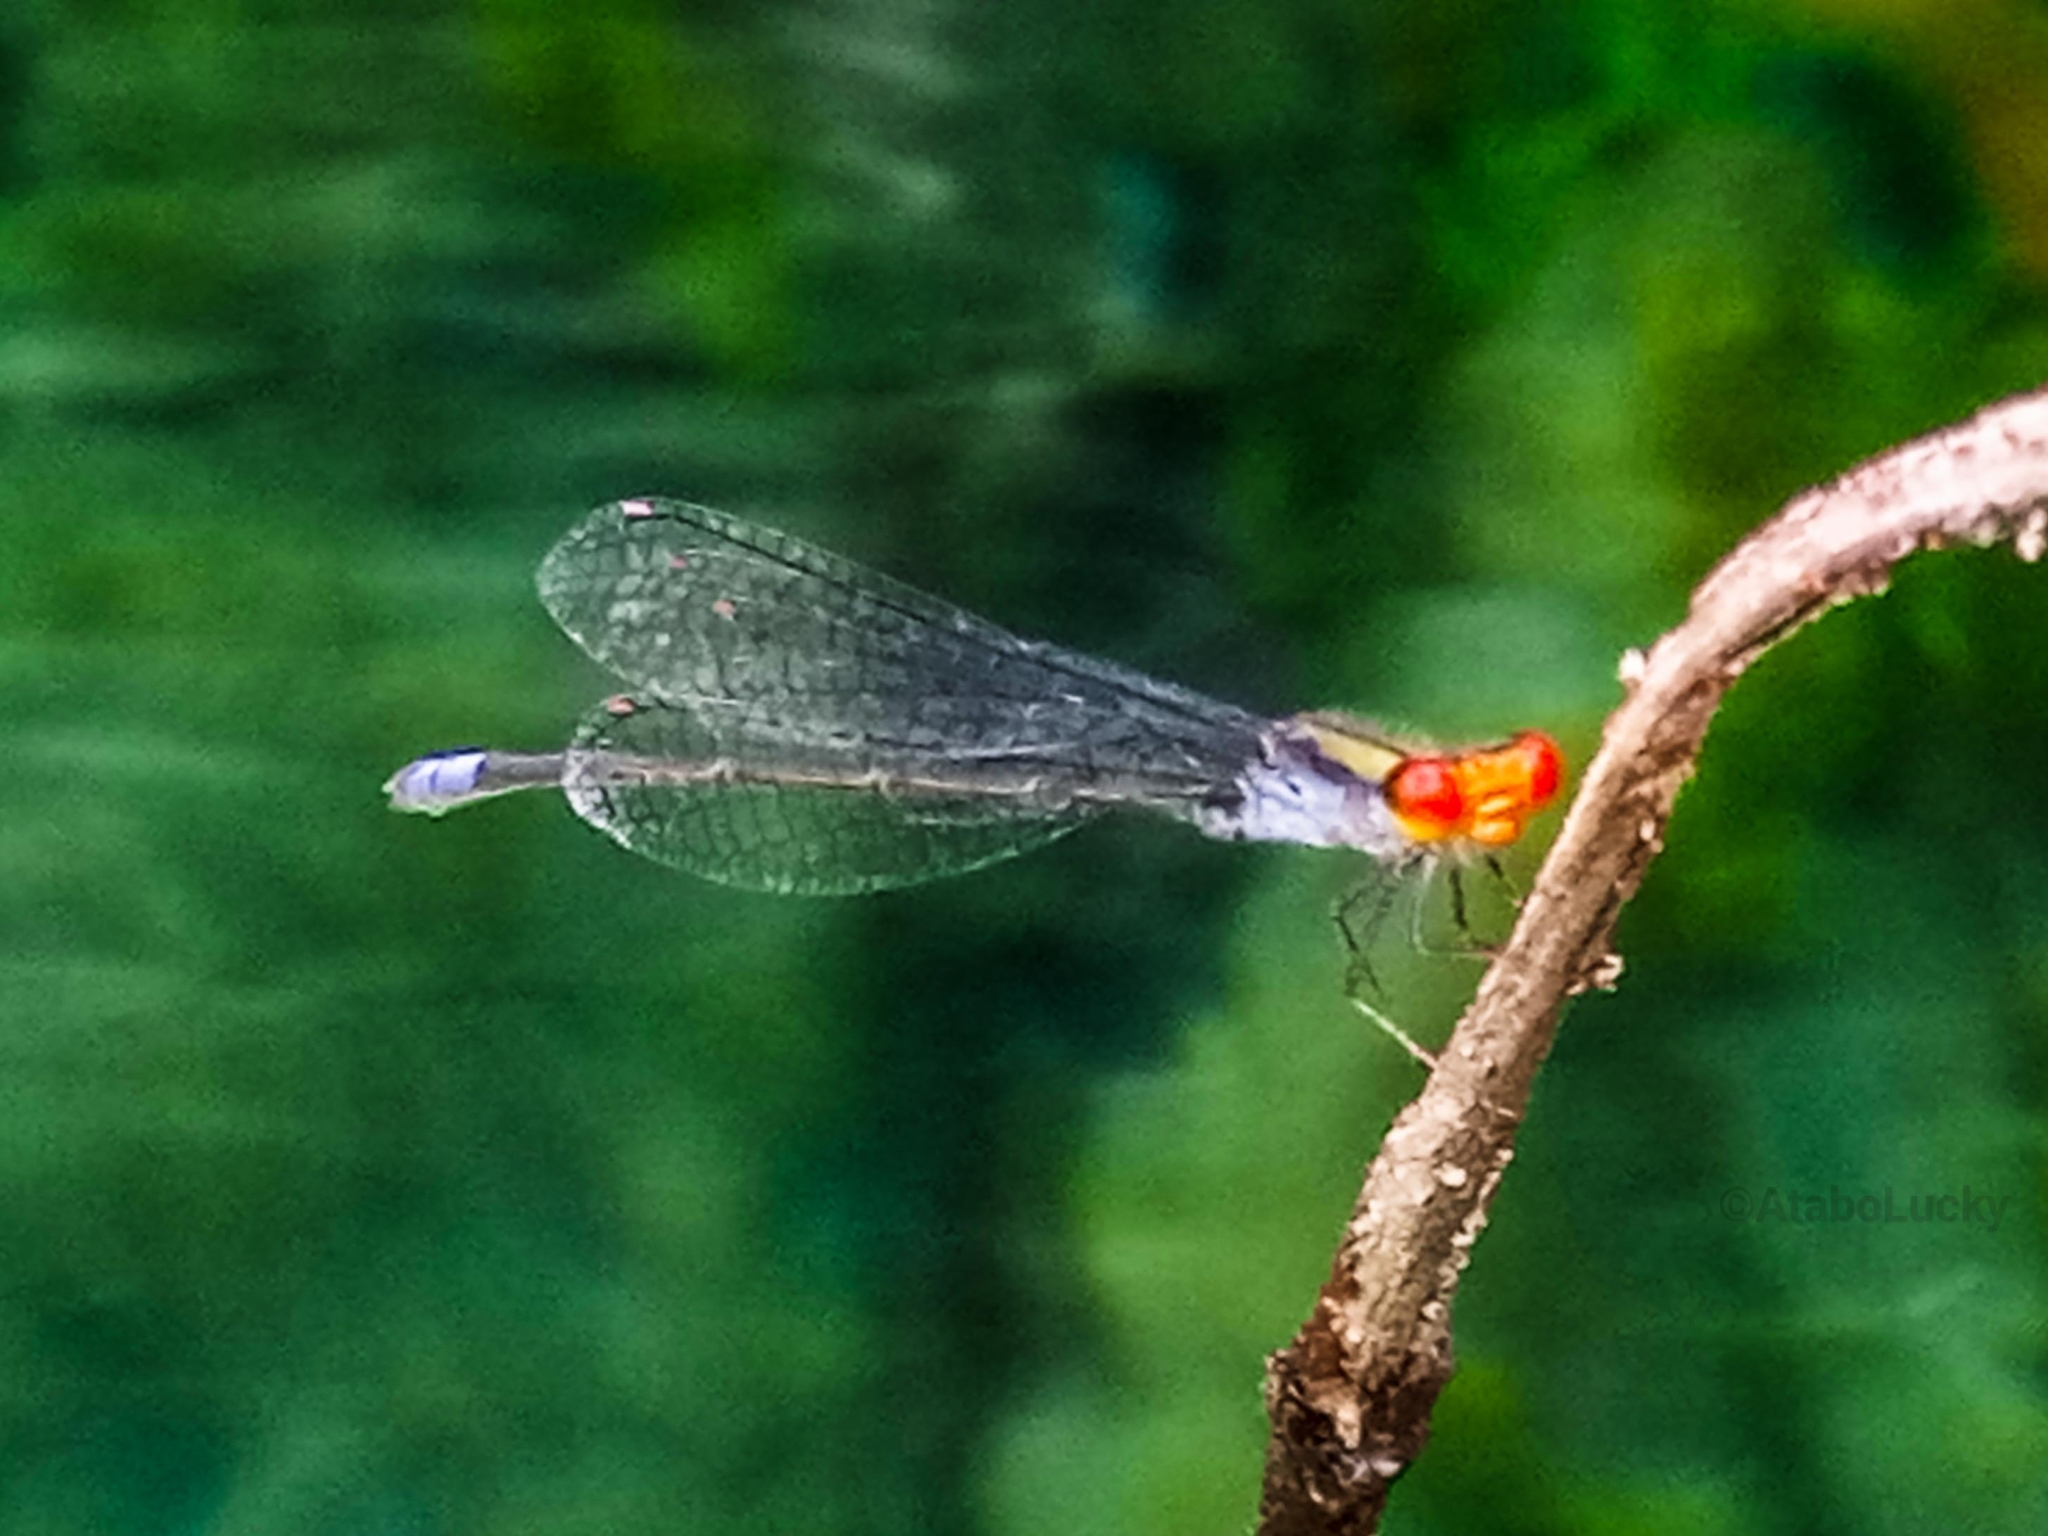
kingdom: Animalia
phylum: Arthropoda
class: Insecta
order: Odonata
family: Coenagrionidae
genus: Pseudagrion
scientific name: Pseudagrion sjoestedti
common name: Variable sprite
